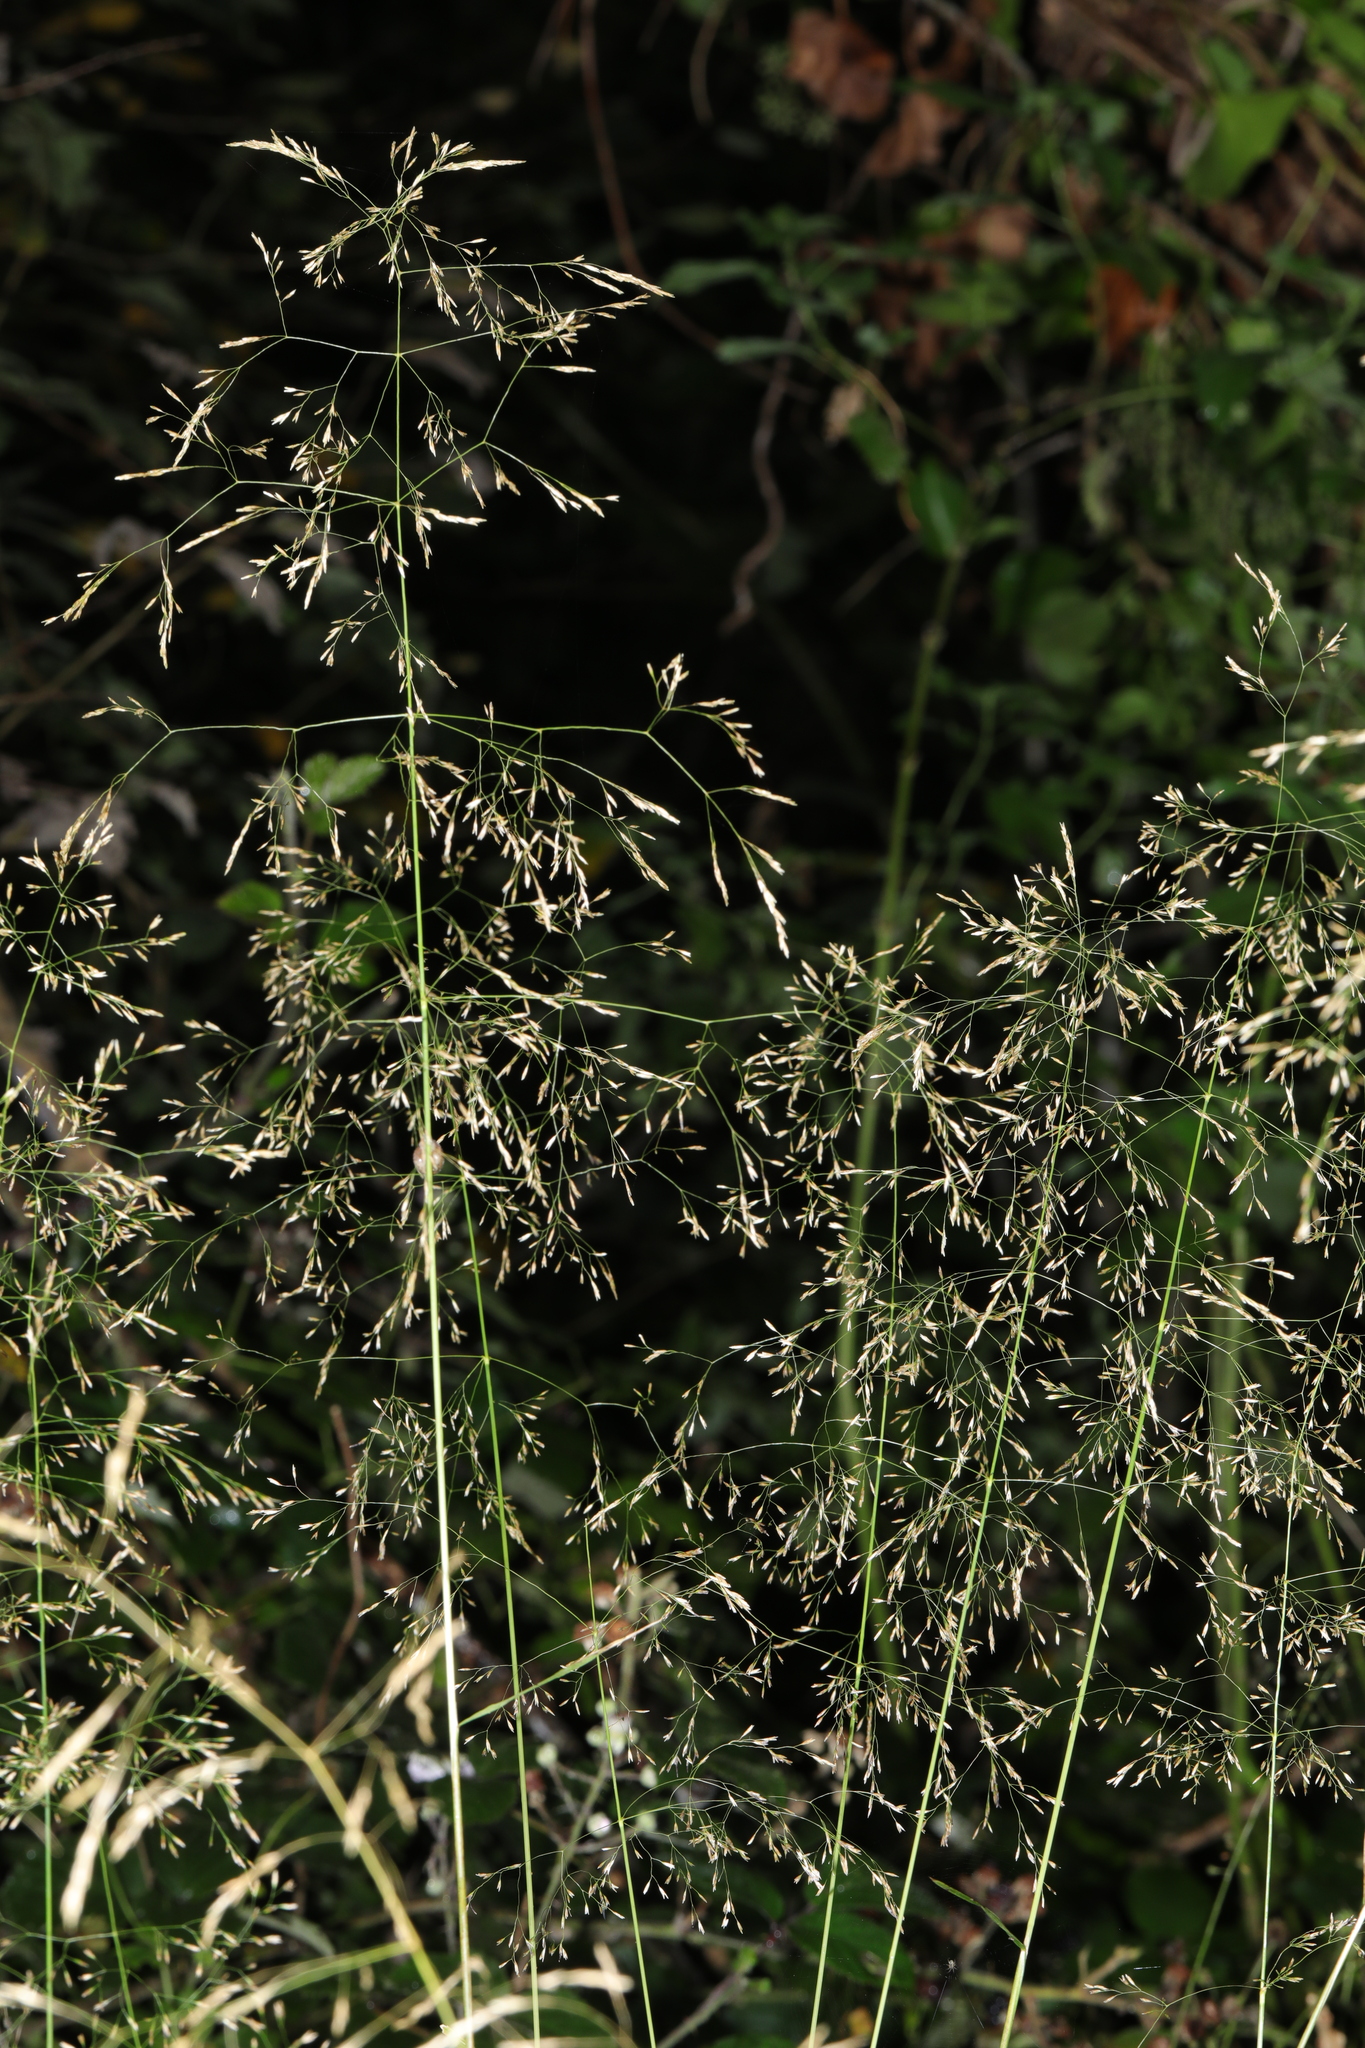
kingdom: Plantae
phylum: Tracheophyta
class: Liliopsida
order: Poales
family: Poaceae
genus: Agrostis
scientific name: Agrostis capillaris
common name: Colonial bentgrass
